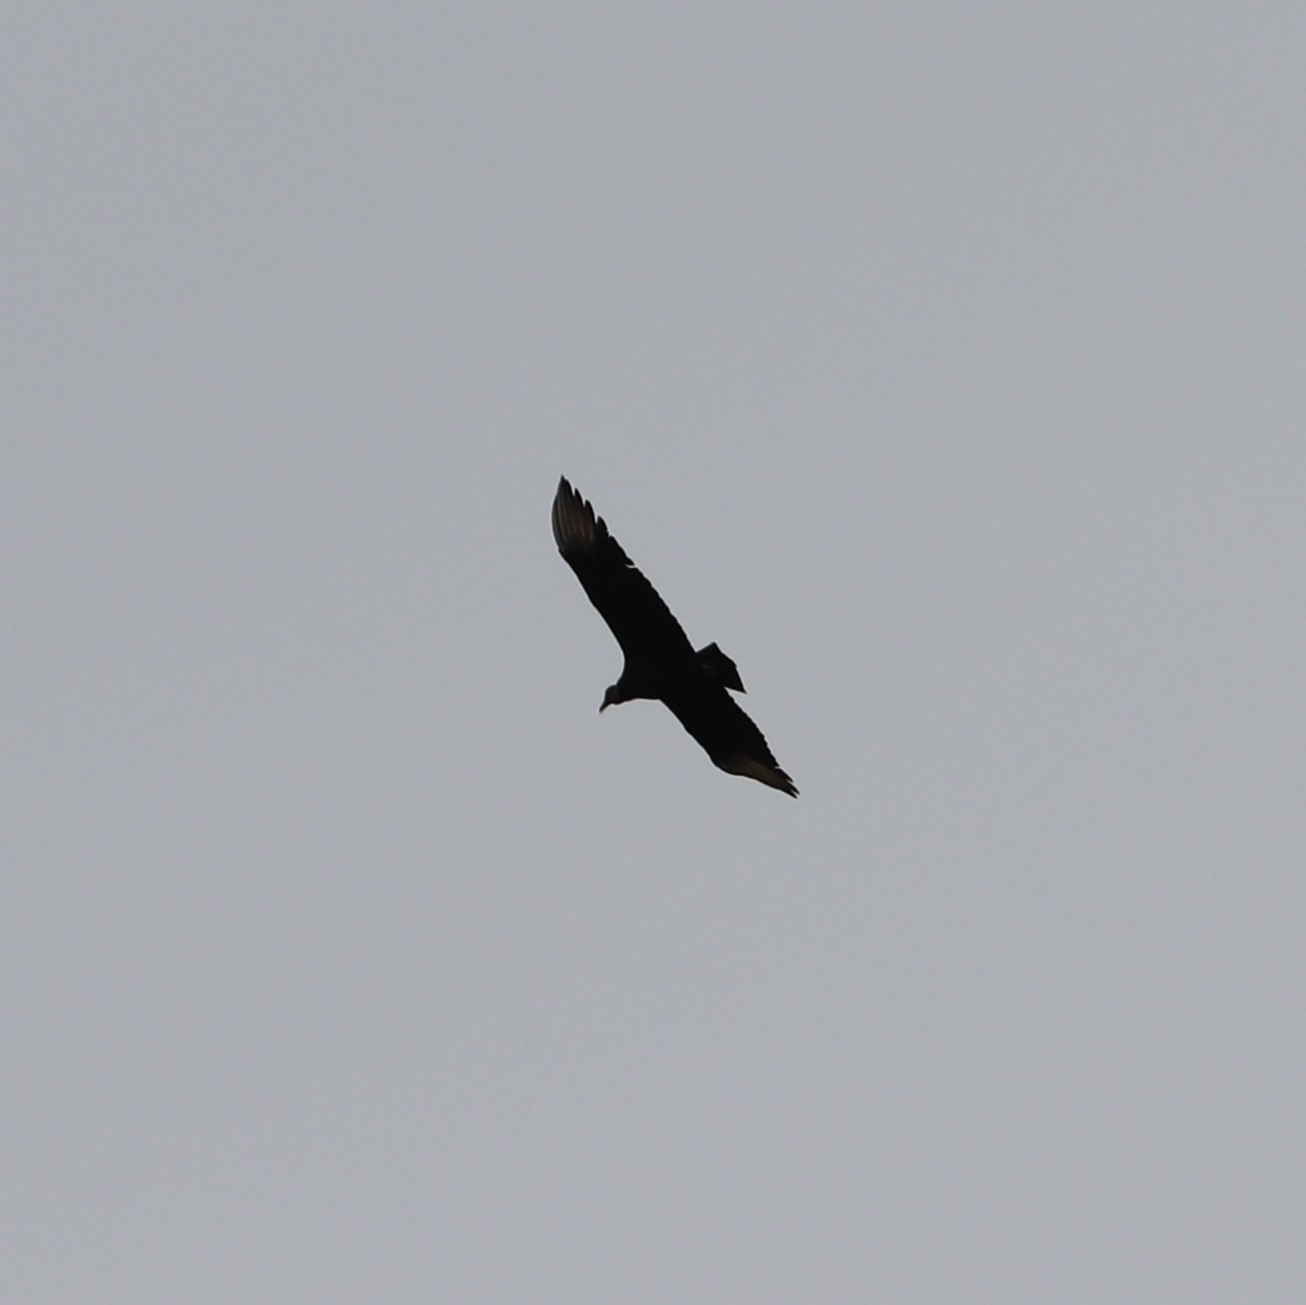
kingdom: Animalia
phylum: Chordata
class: Aves
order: Accipitriformes
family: Cathartidae
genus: Coragyps
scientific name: Coragyps atratus
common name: Black vulture
